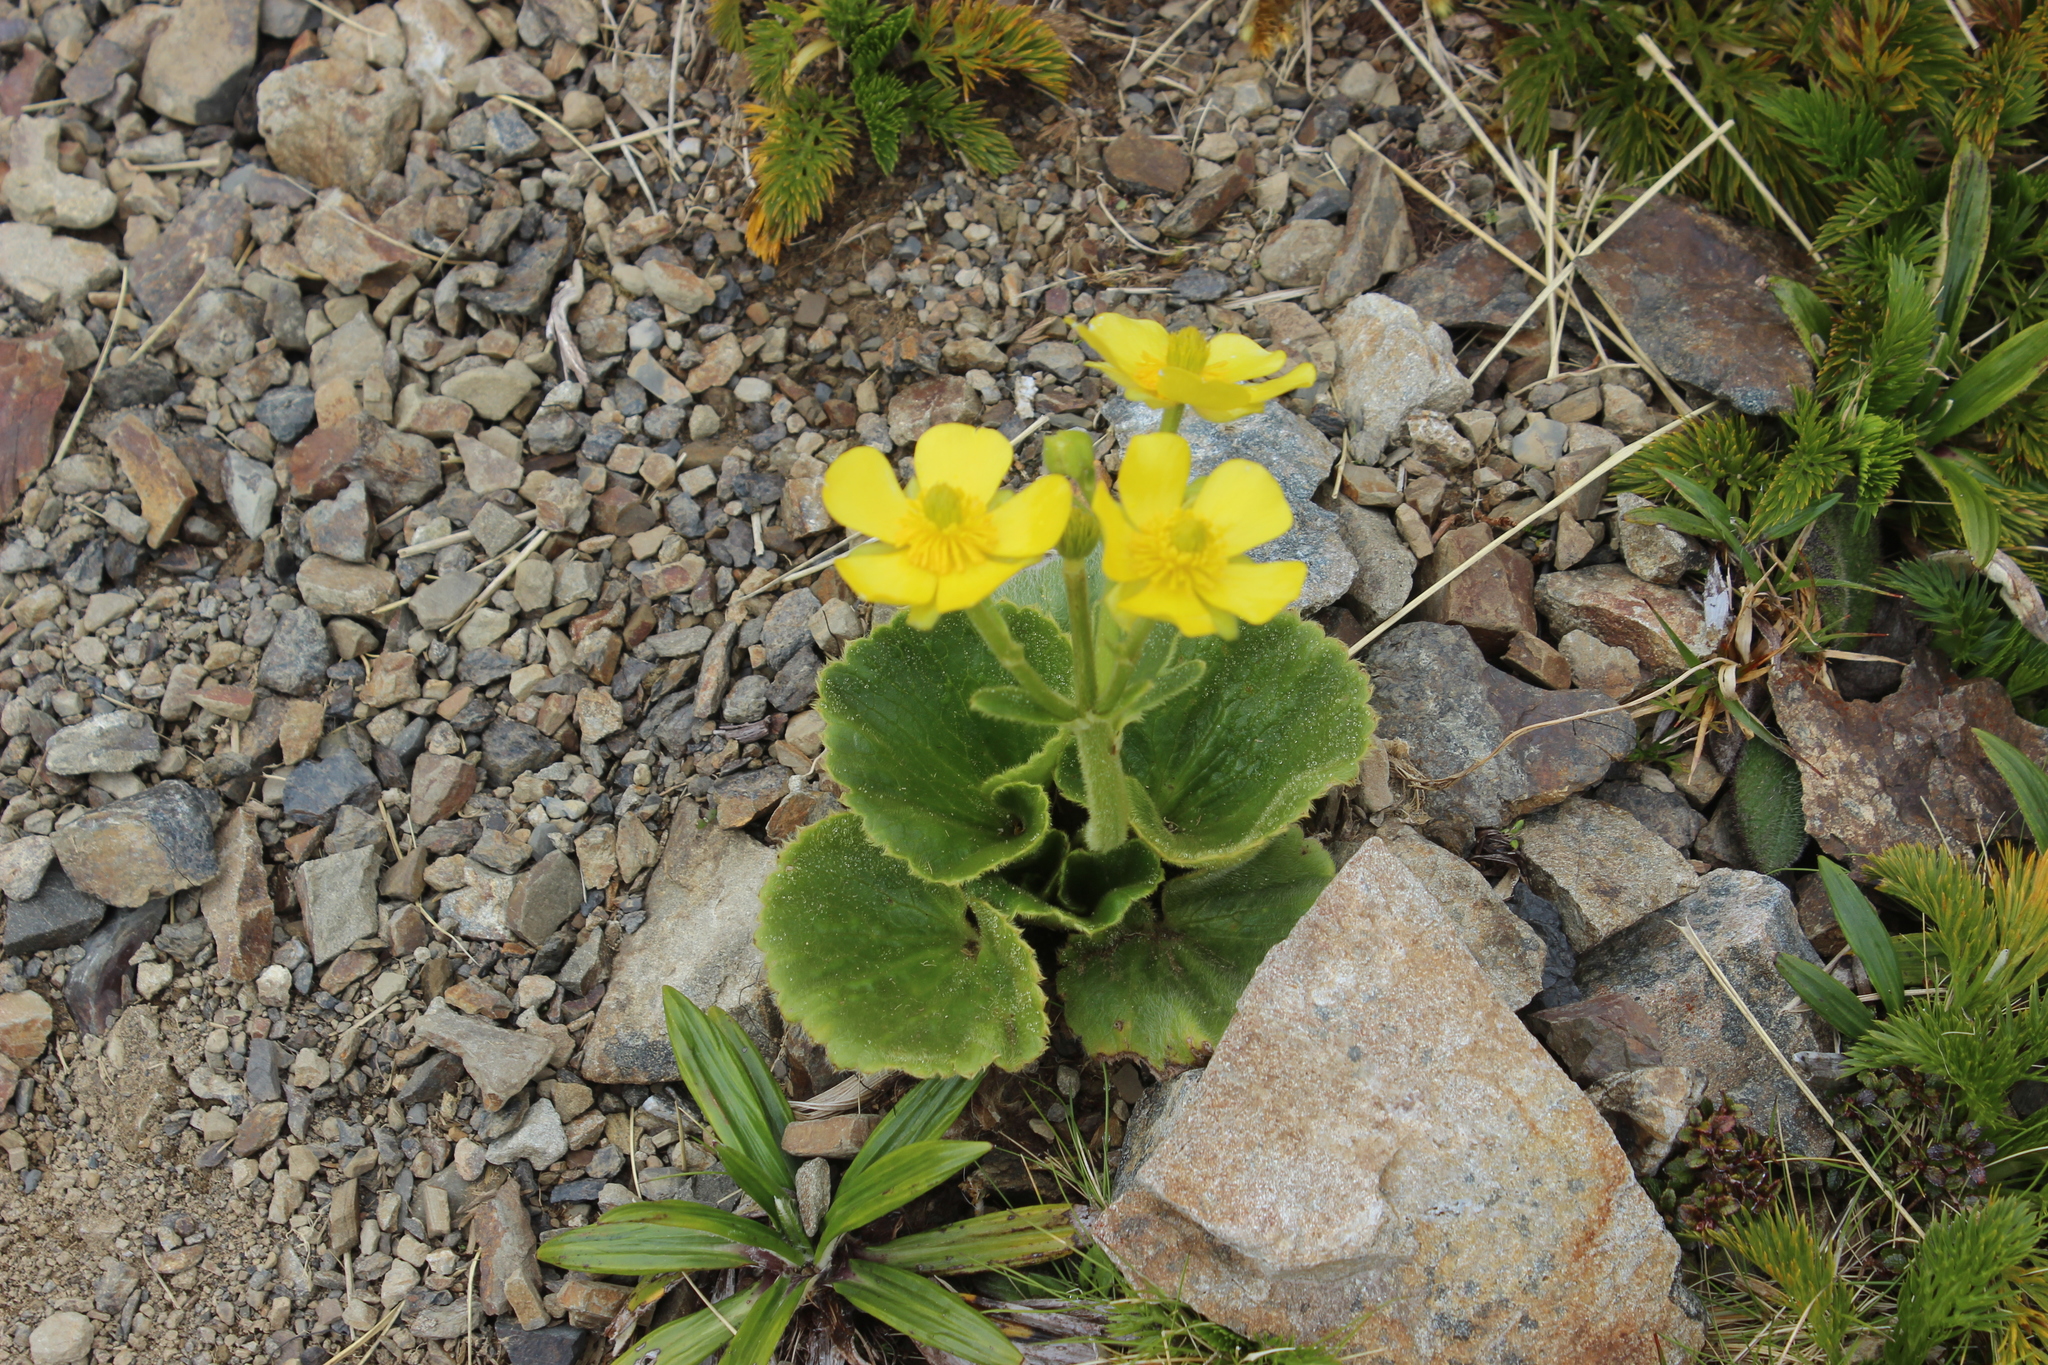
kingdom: Plantae
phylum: Tracheophyta
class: Magnoliopsida
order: Ranunculales
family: Ranunculaceae
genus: Ranunculus
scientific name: Ranunculus insignis
